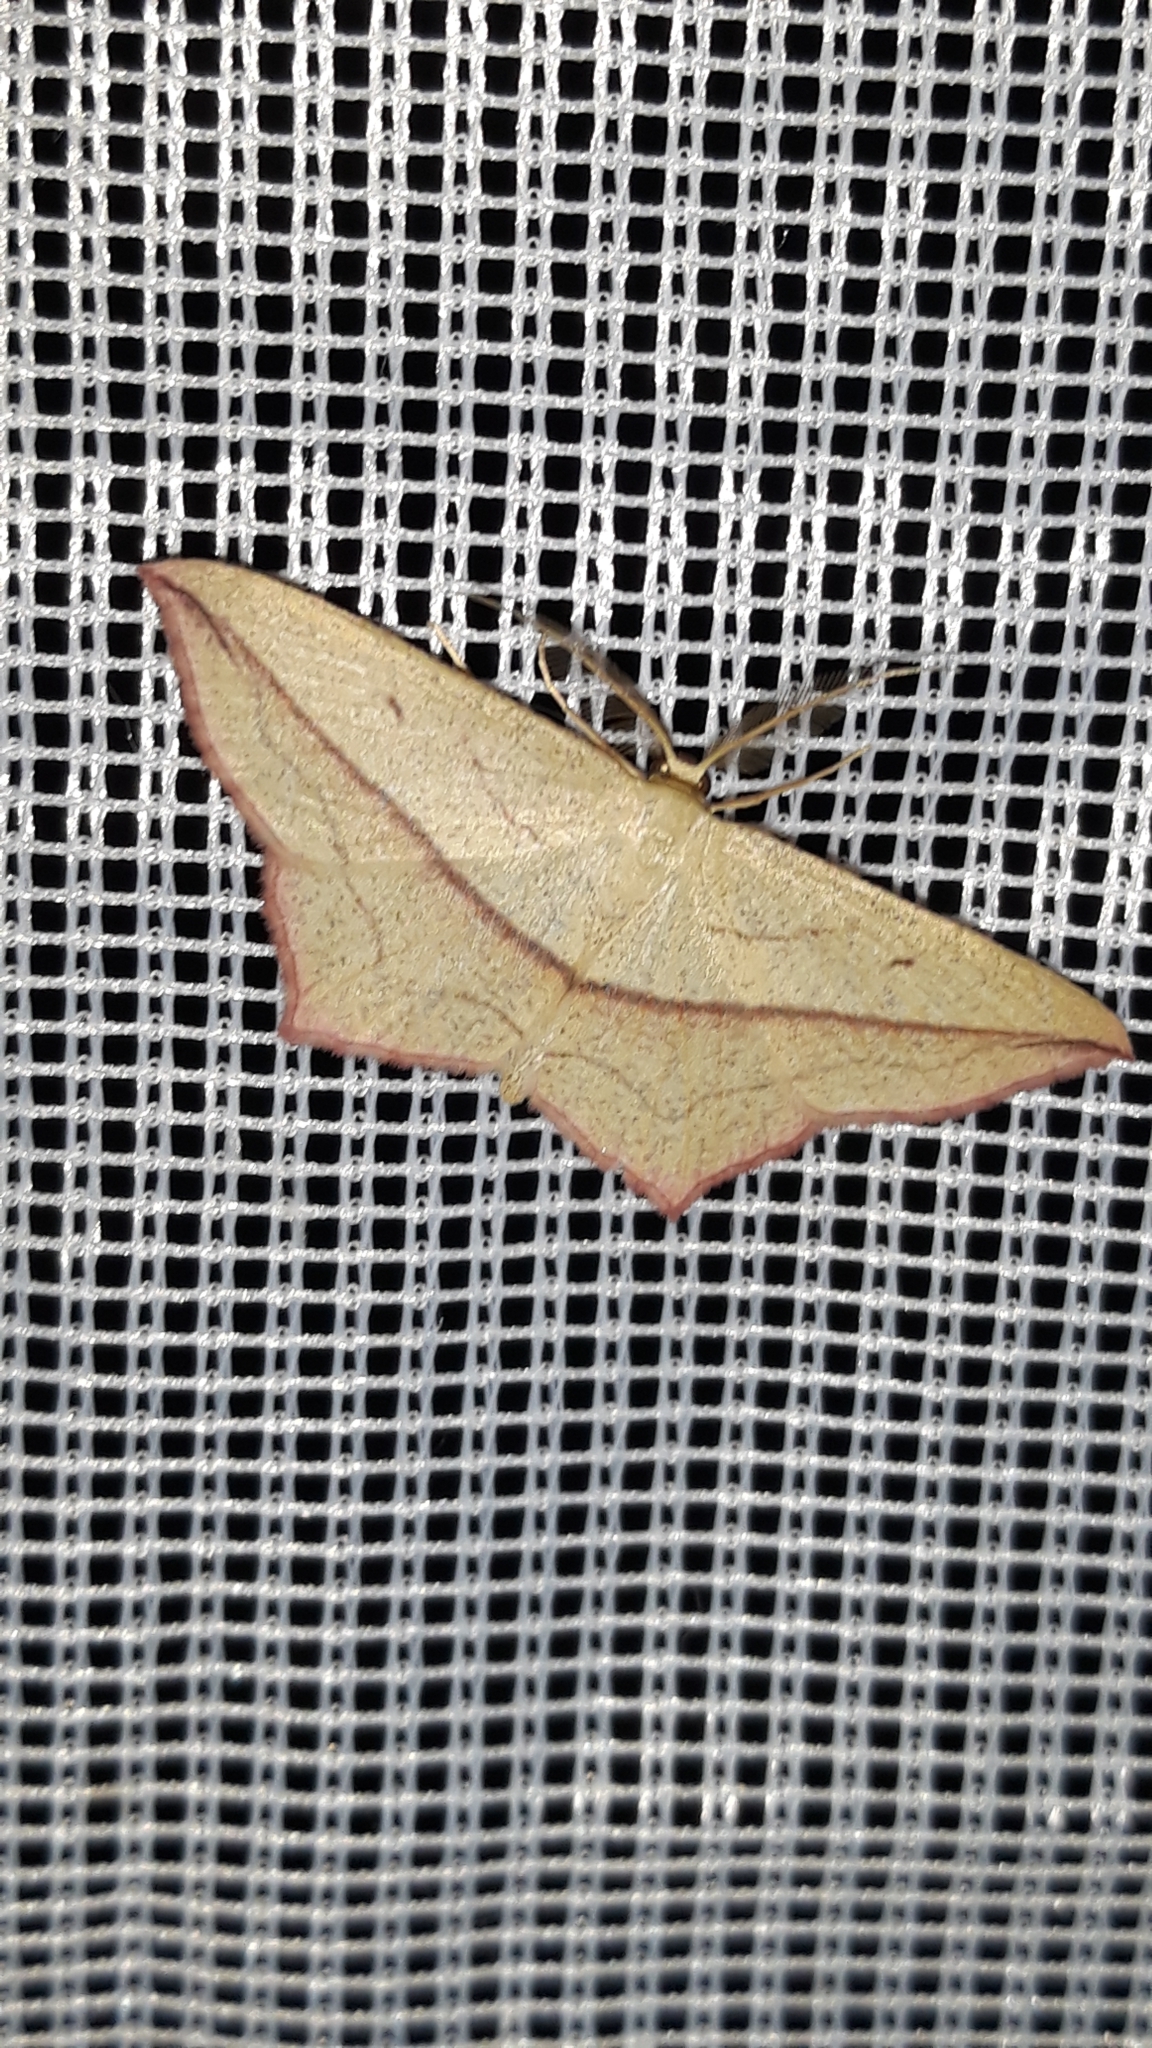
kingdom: Animalia
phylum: Arthropoda
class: Insecta
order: Lepidoptera
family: Geometridae
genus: Timandra
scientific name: Timandra comae
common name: Blood-vein
